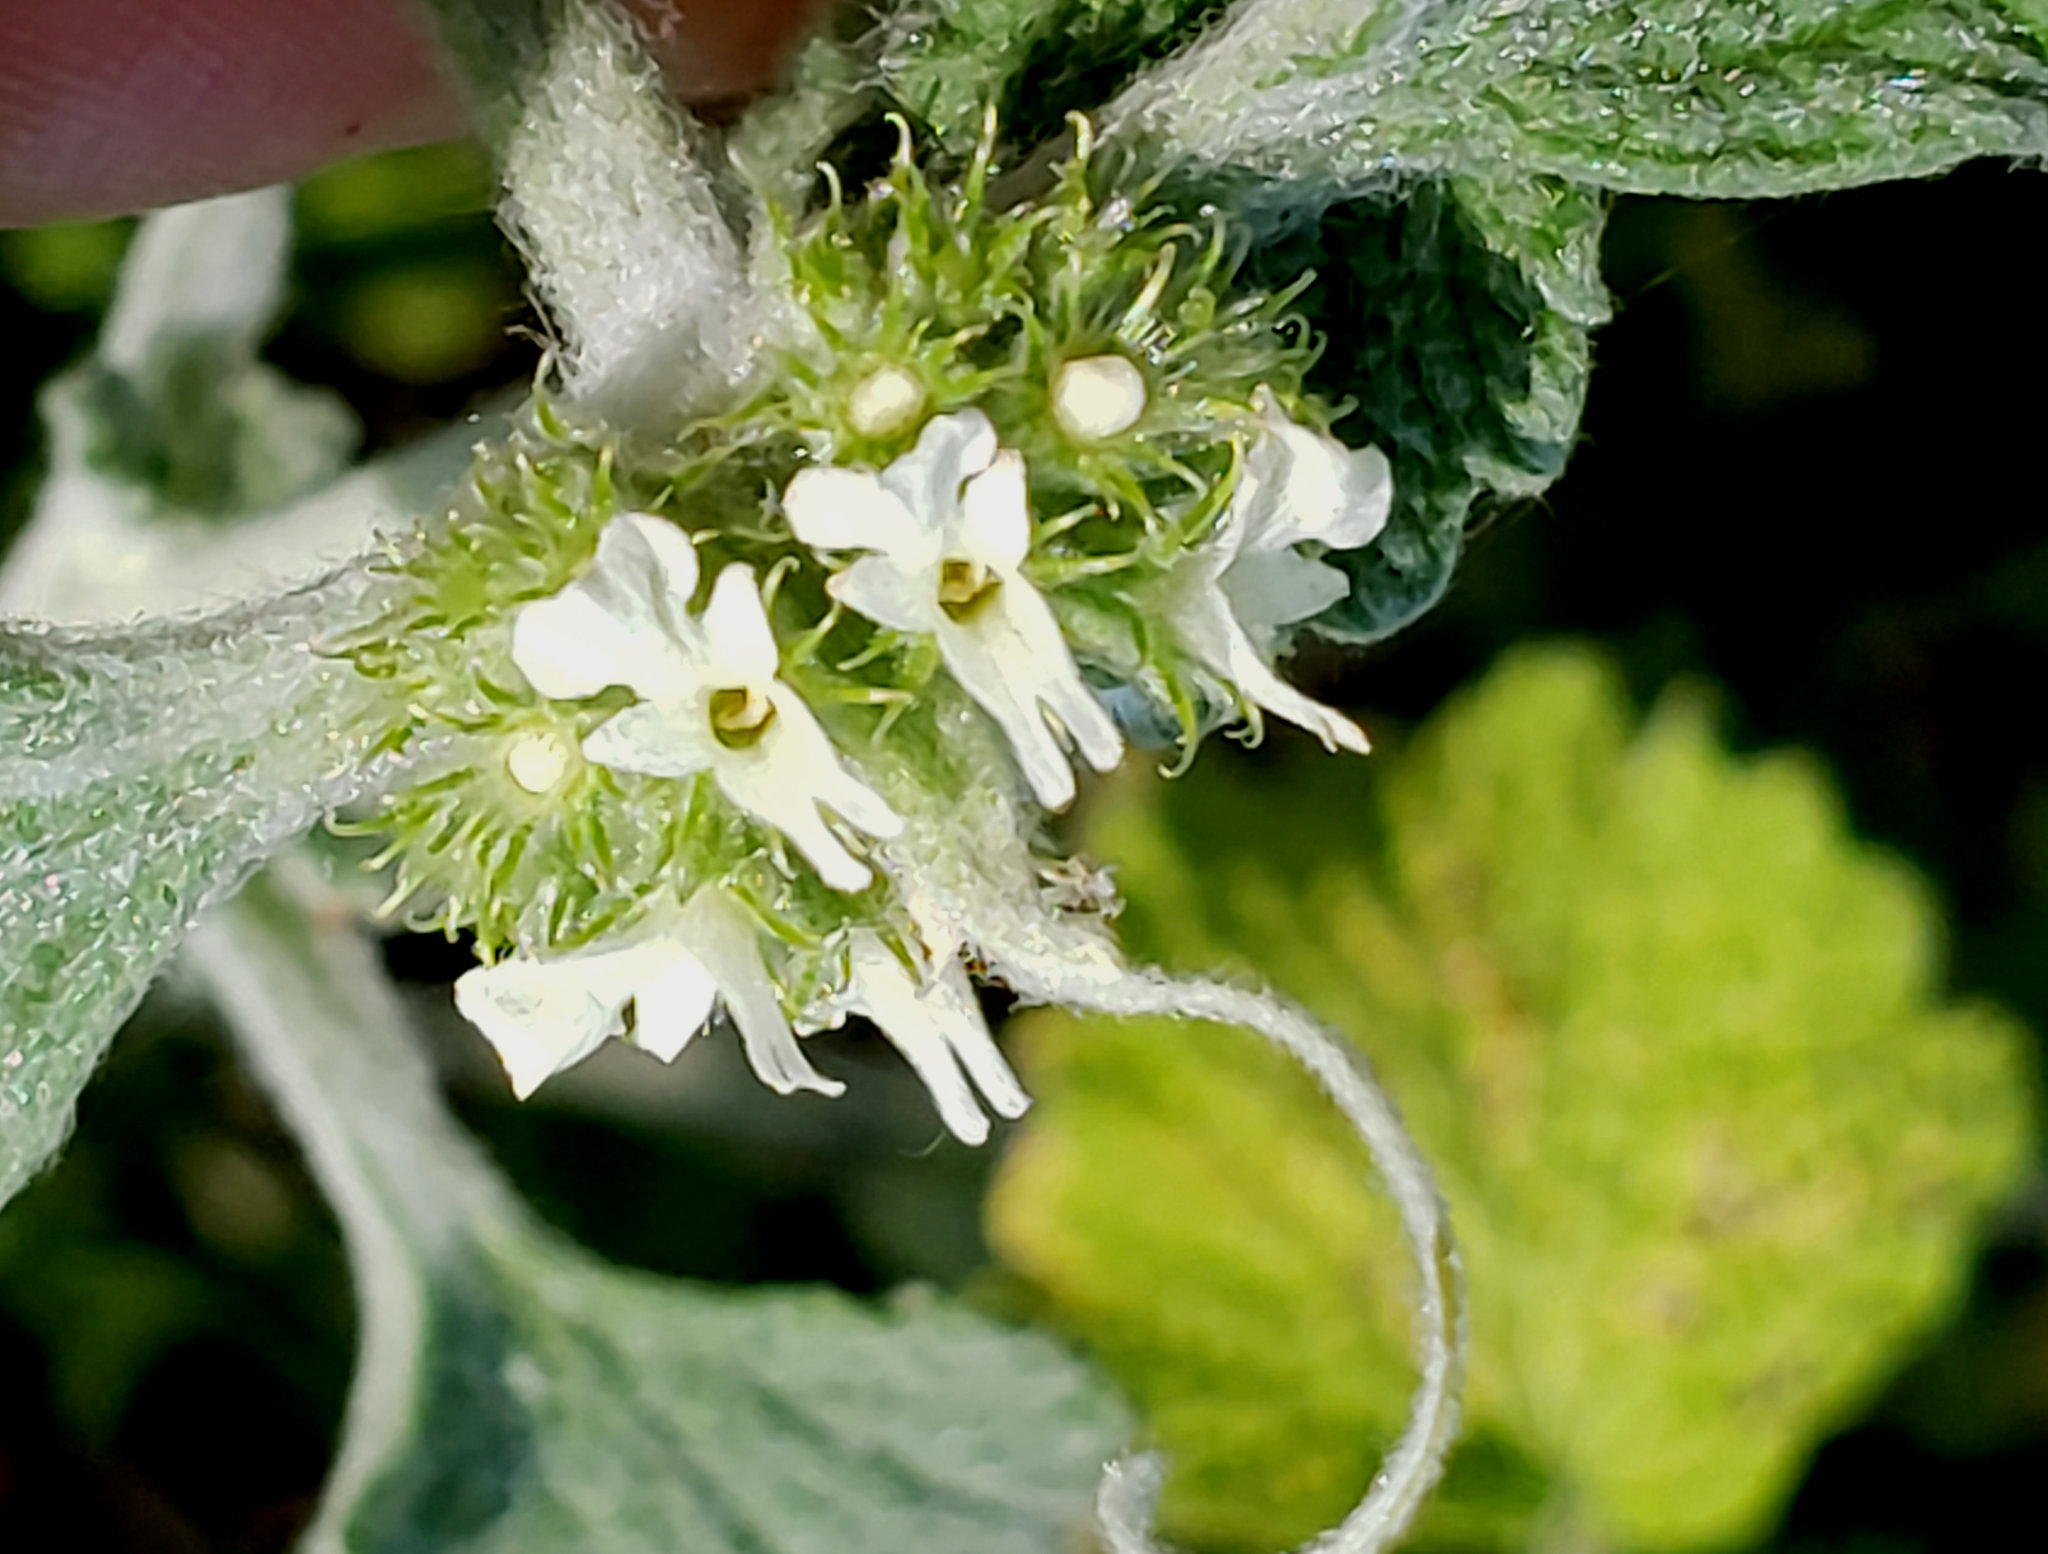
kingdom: Plantae
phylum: Tracheophyta
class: Magnoliopsida
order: Lamiales
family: Lamiaceae
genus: Marrubium
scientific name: Marrubium vulgare
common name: Horehound
